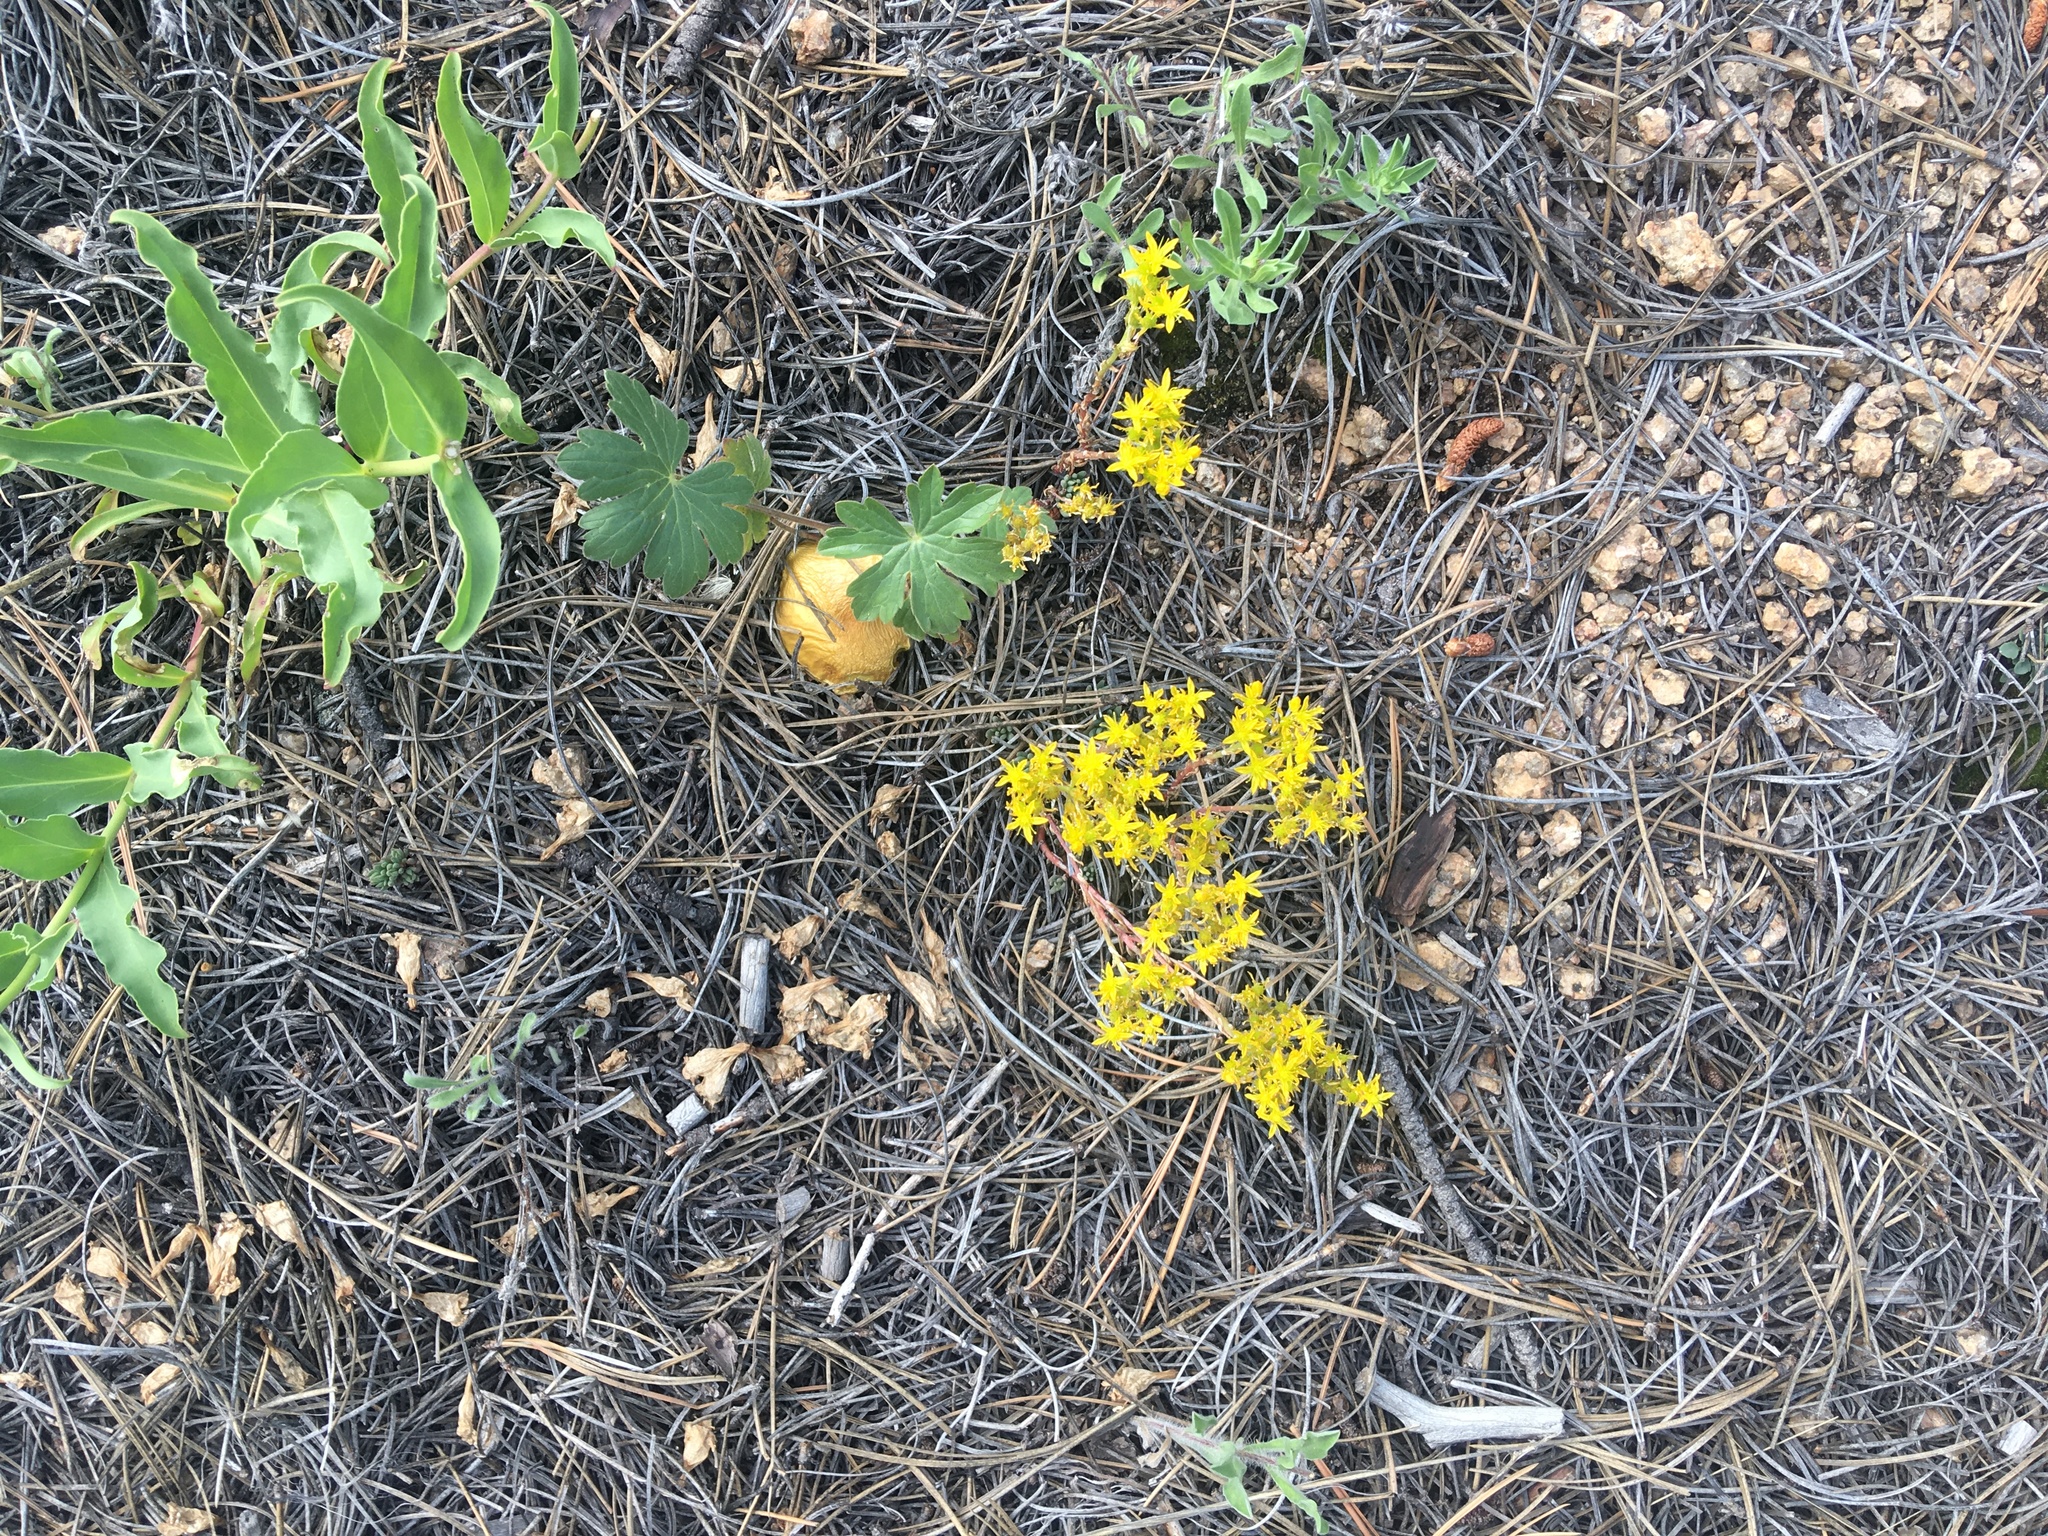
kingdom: Plantae
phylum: Tracheophyta
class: Magnoliopsida
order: Saxifragales
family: Crassulaceae
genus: Sedum
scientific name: Sedum lanceolatum
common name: Common stonecrop
